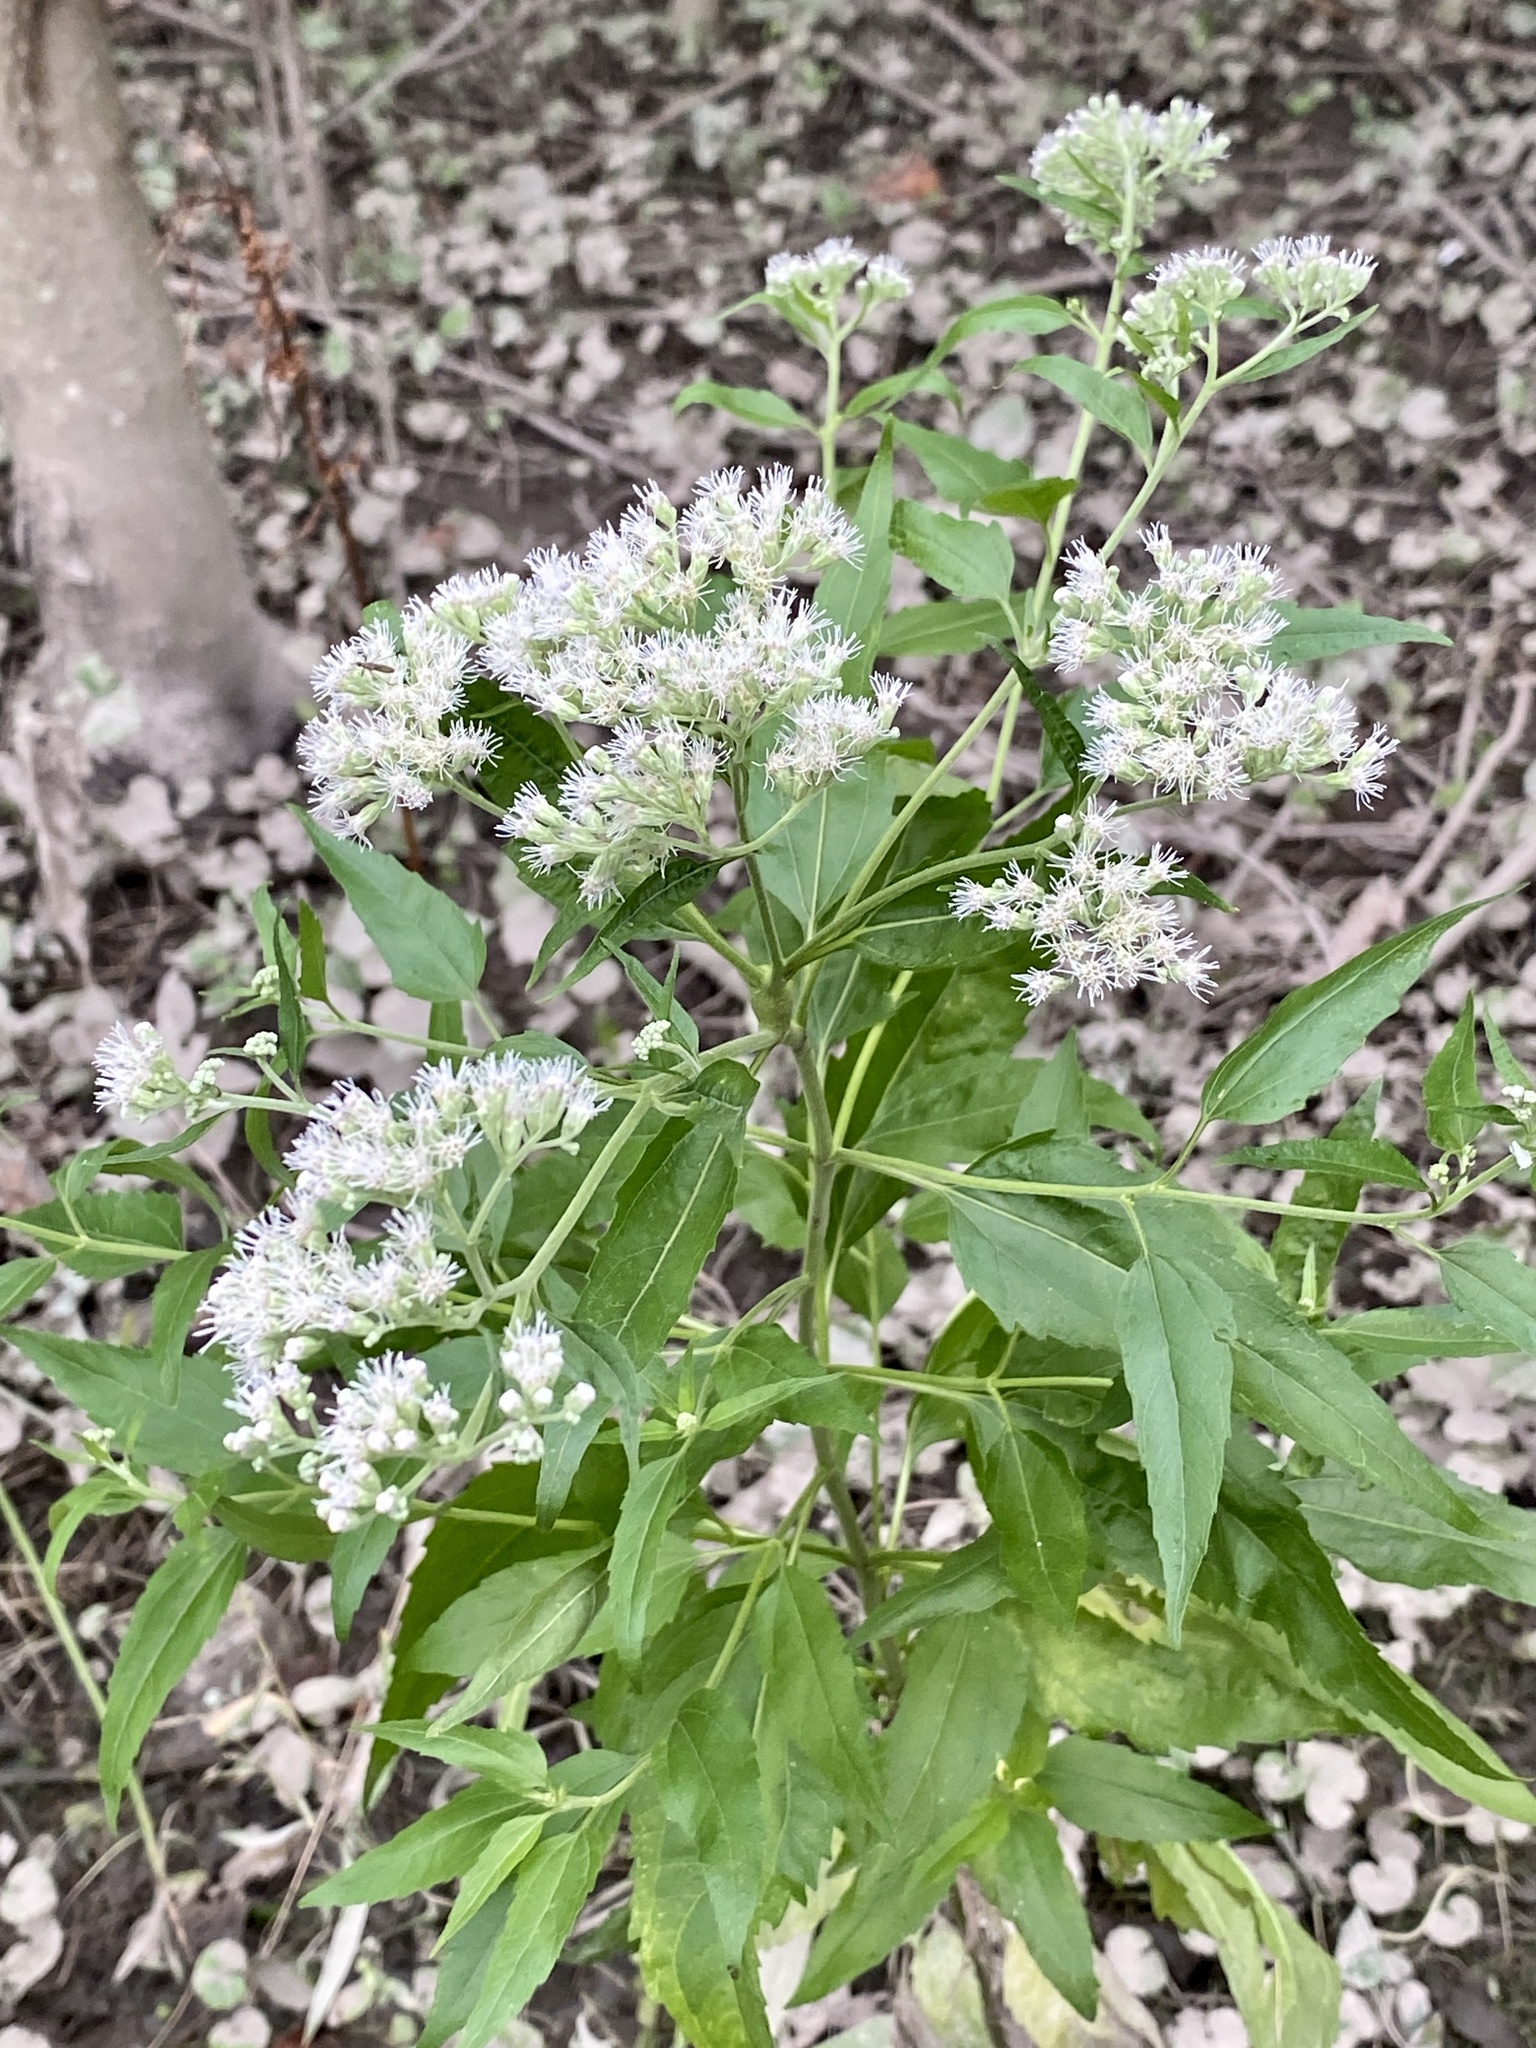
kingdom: Plantae
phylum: Tracheophyta
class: Magnoliopsida
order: Asterales
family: Asteraceae
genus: Eupatorium
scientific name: Eupatorium serotinum
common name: Late boneset
